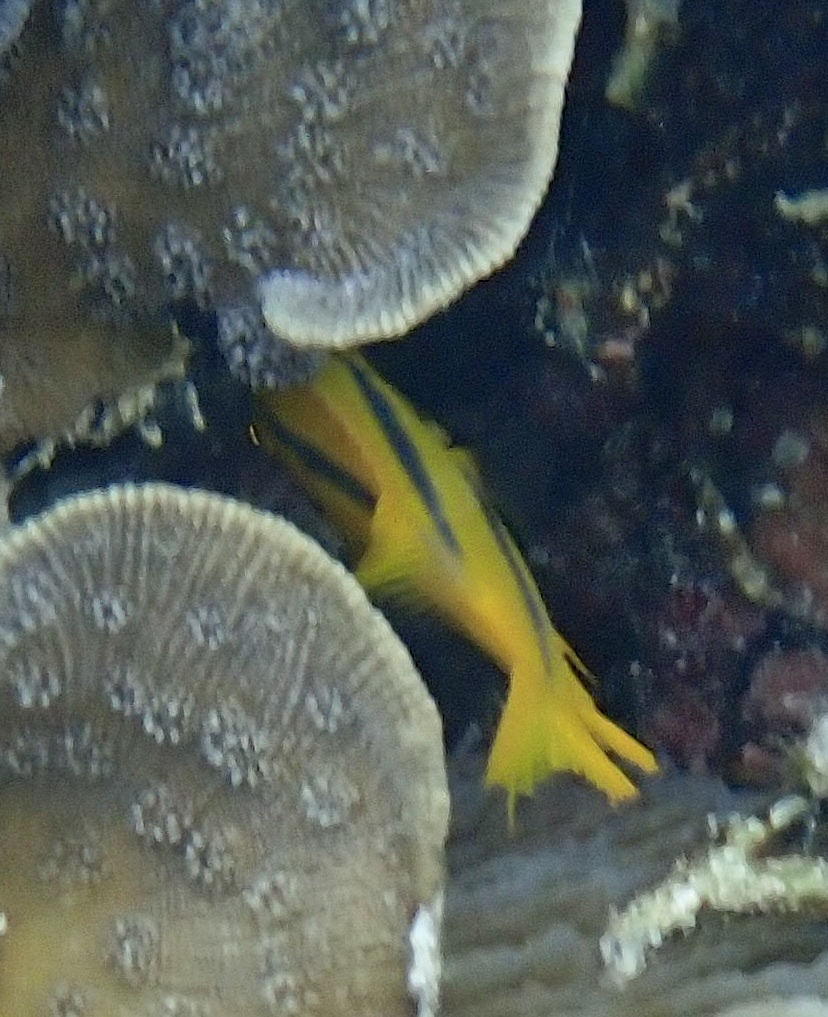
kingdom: Animalia
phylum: Chordata
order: Perciformes
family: Pomacentridae
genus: Neoglyphidodon
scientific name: Neoglyphidodon nigroris
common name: Behn's damsel
